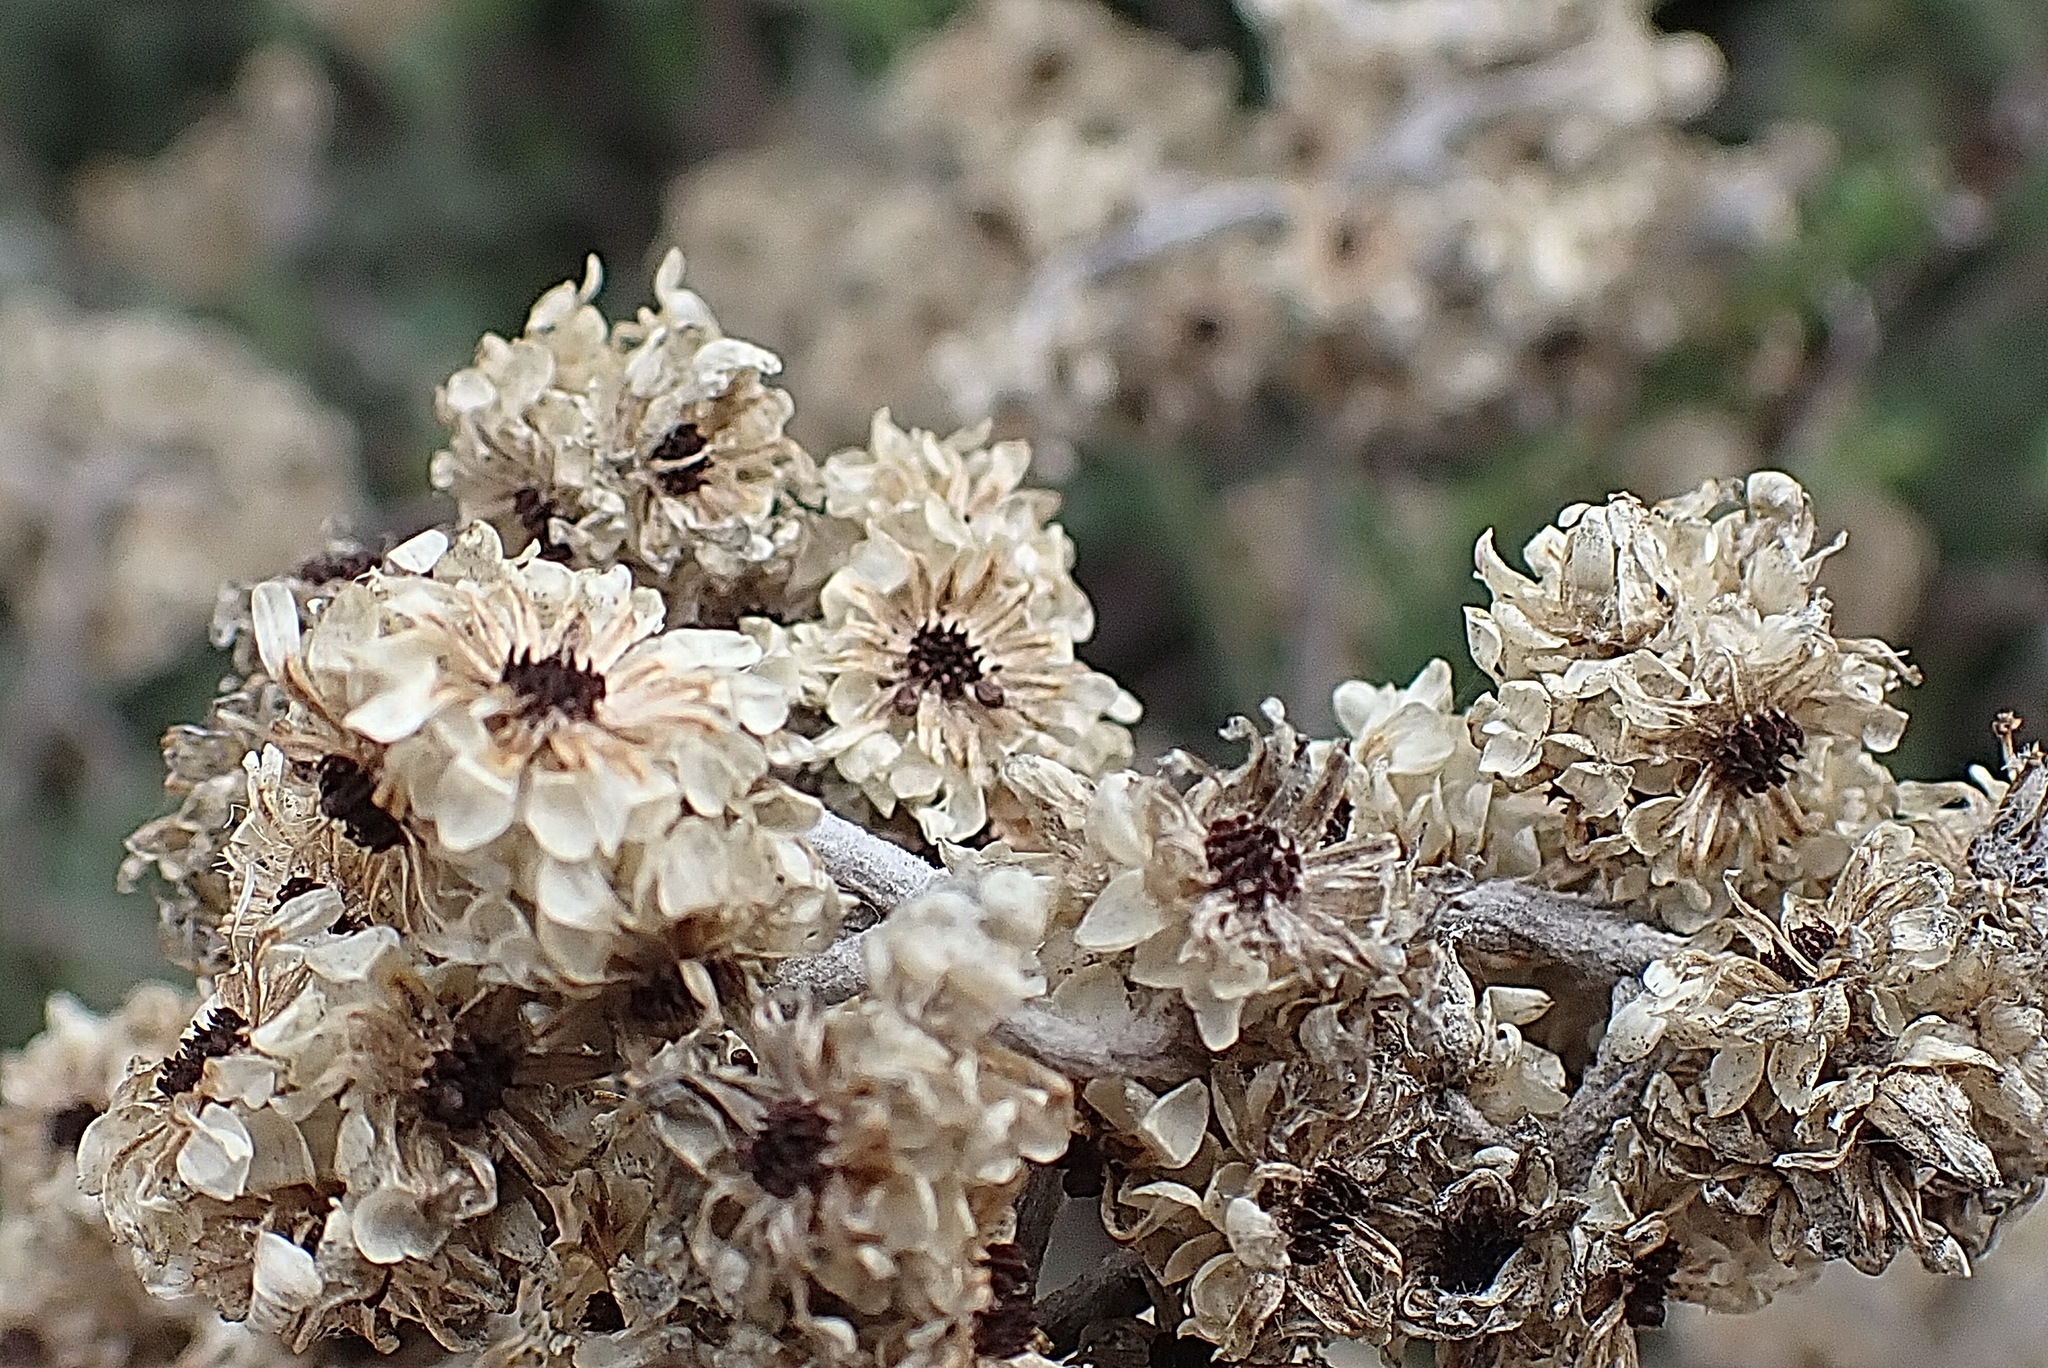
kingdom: Plantae
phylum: Tracheophyta
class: Magnoliopsida
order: Asterales
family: Asteraceae
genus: Helichrysum
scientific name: Helichrysum petiolare
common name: Licorice-plant
